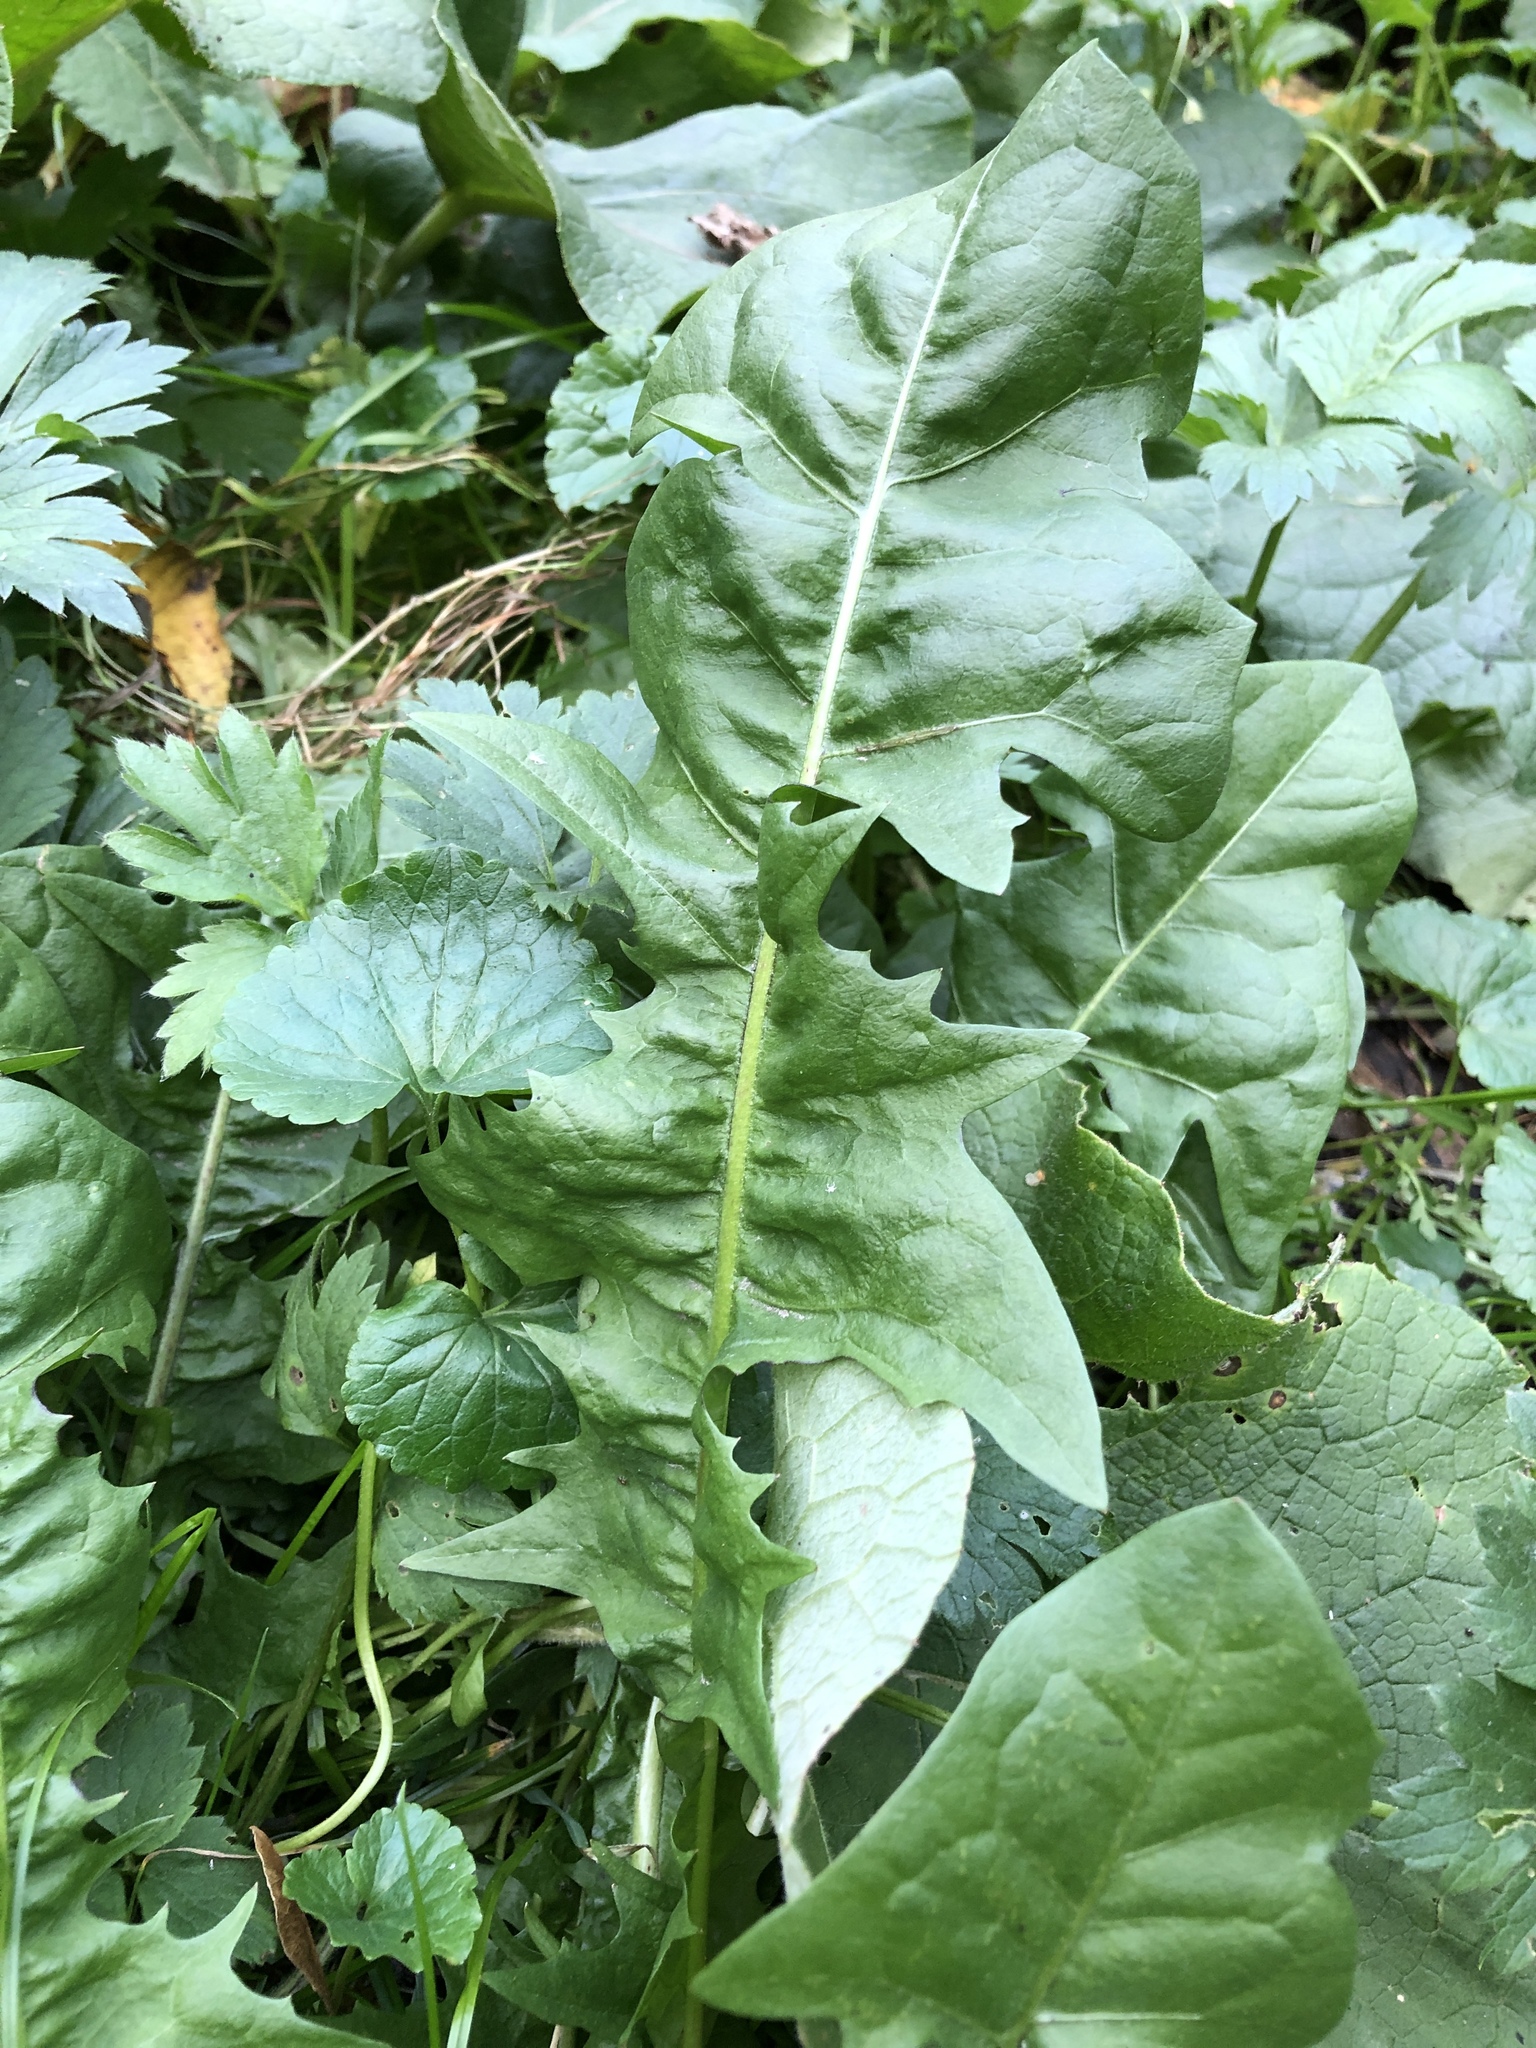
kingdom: Plantae
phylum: Tracheophyta
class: Magnoliopsida
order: Asterales
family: Asteraceae
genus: Taraxacum
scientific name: Taraxacum officinale
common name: Common dandelion
